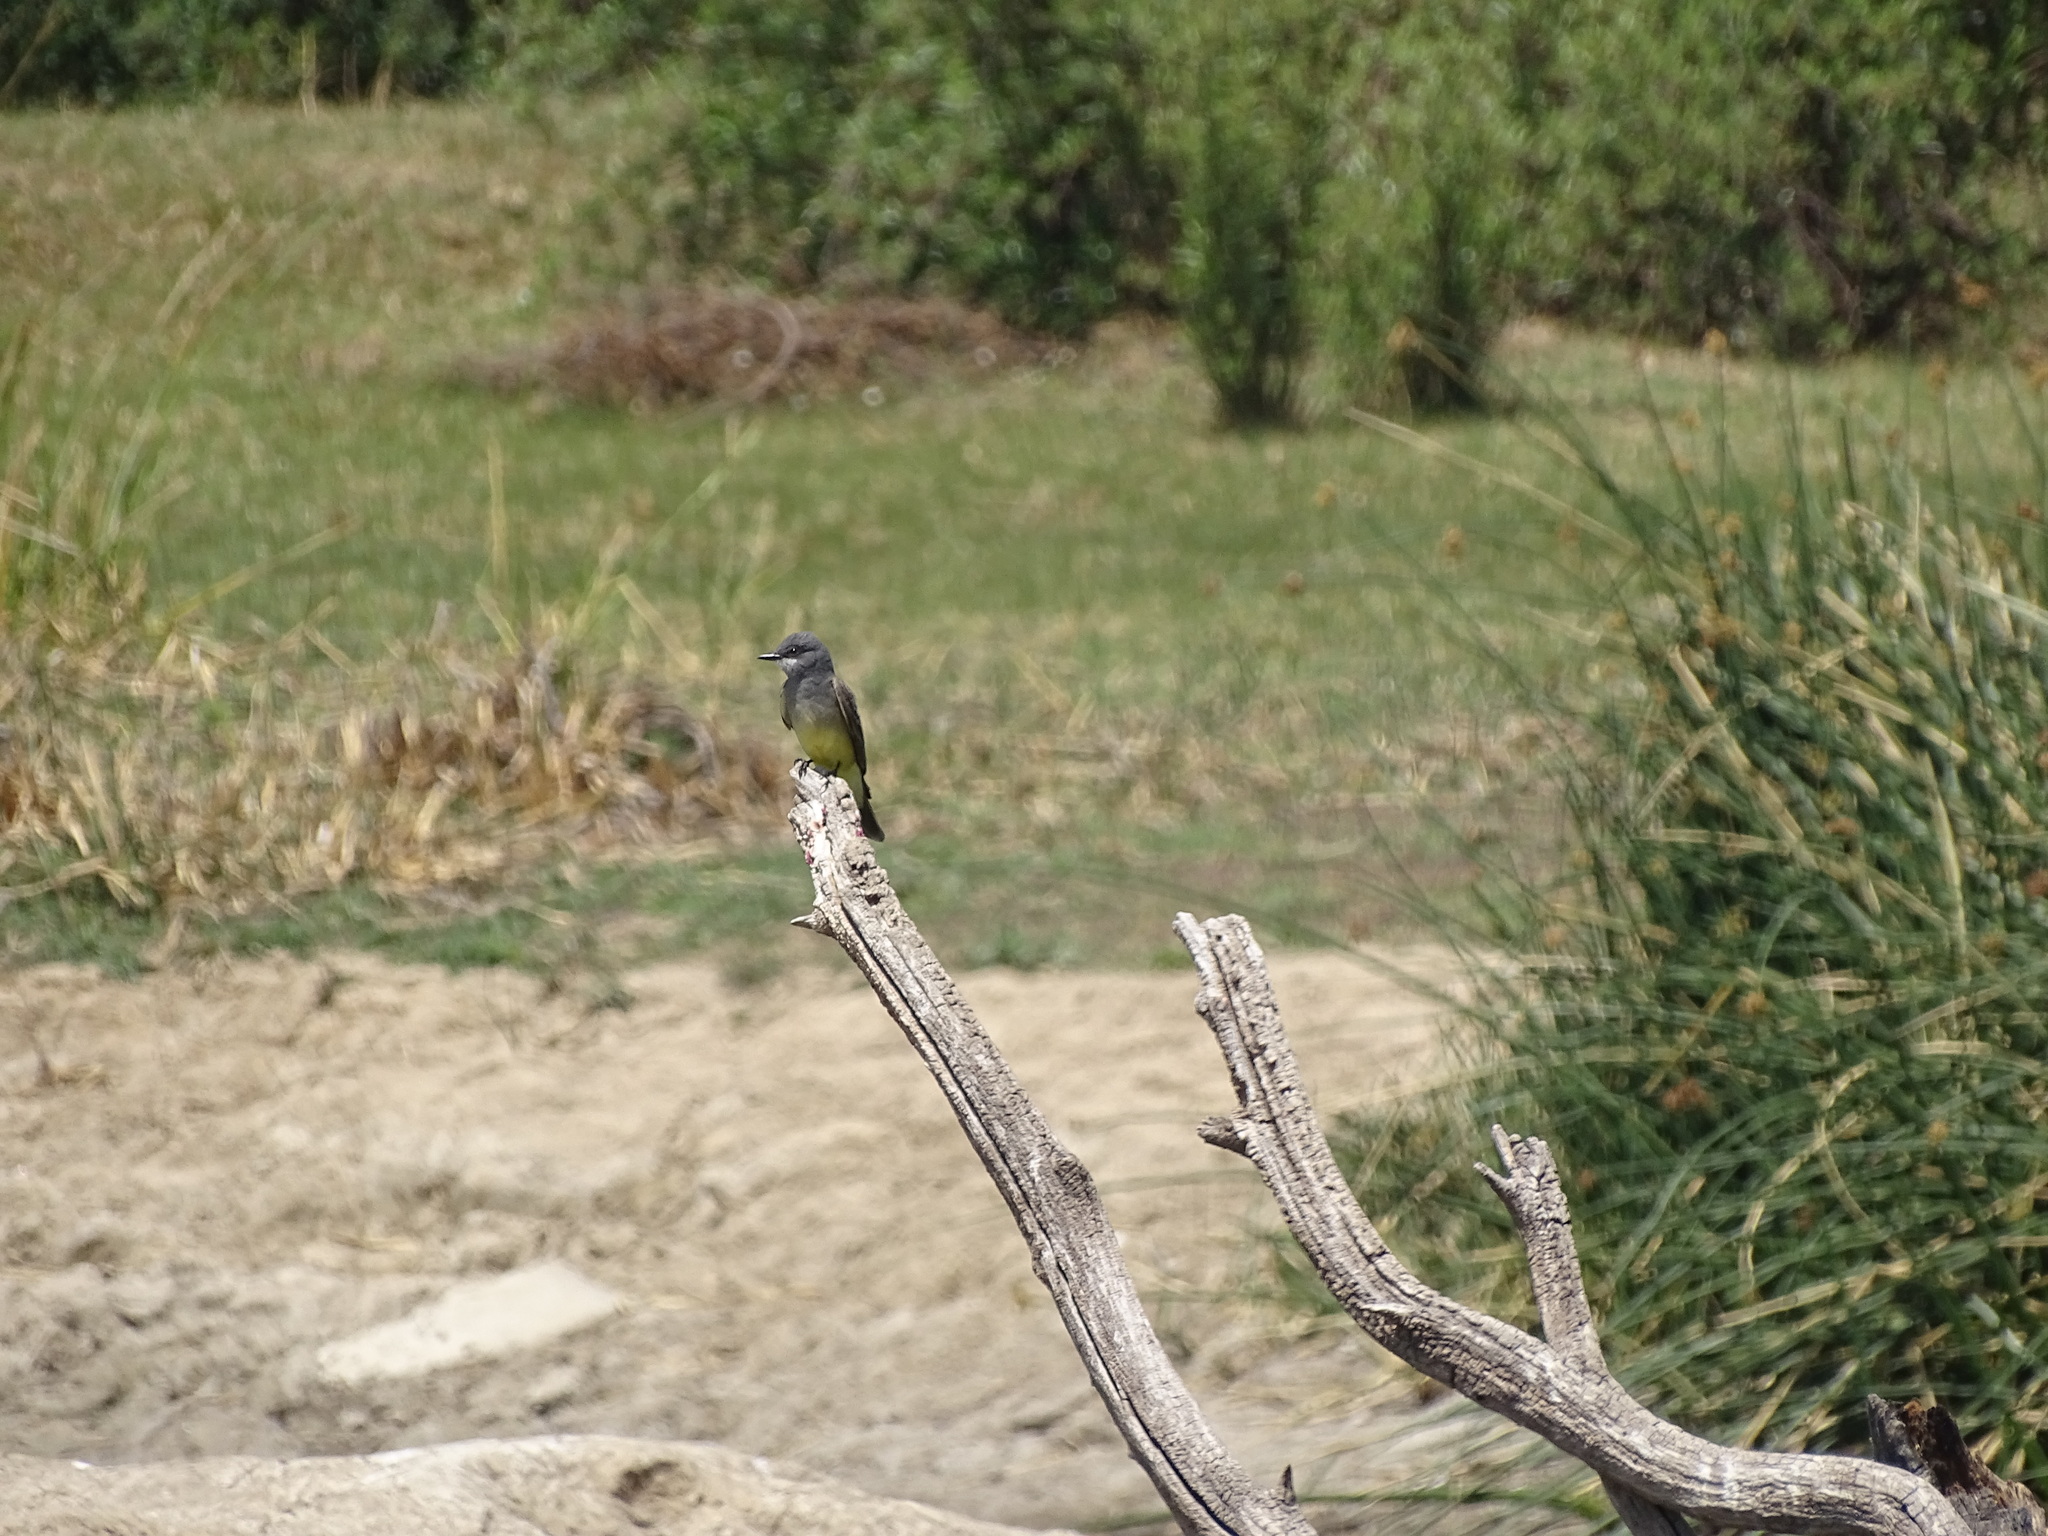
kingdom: Animalia
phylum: Chordata
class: Aves
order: Passeriformes
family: Tyrannidae
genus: Tyrannus
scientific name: Tyrannus vociferans
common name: Cassin's kingbird
